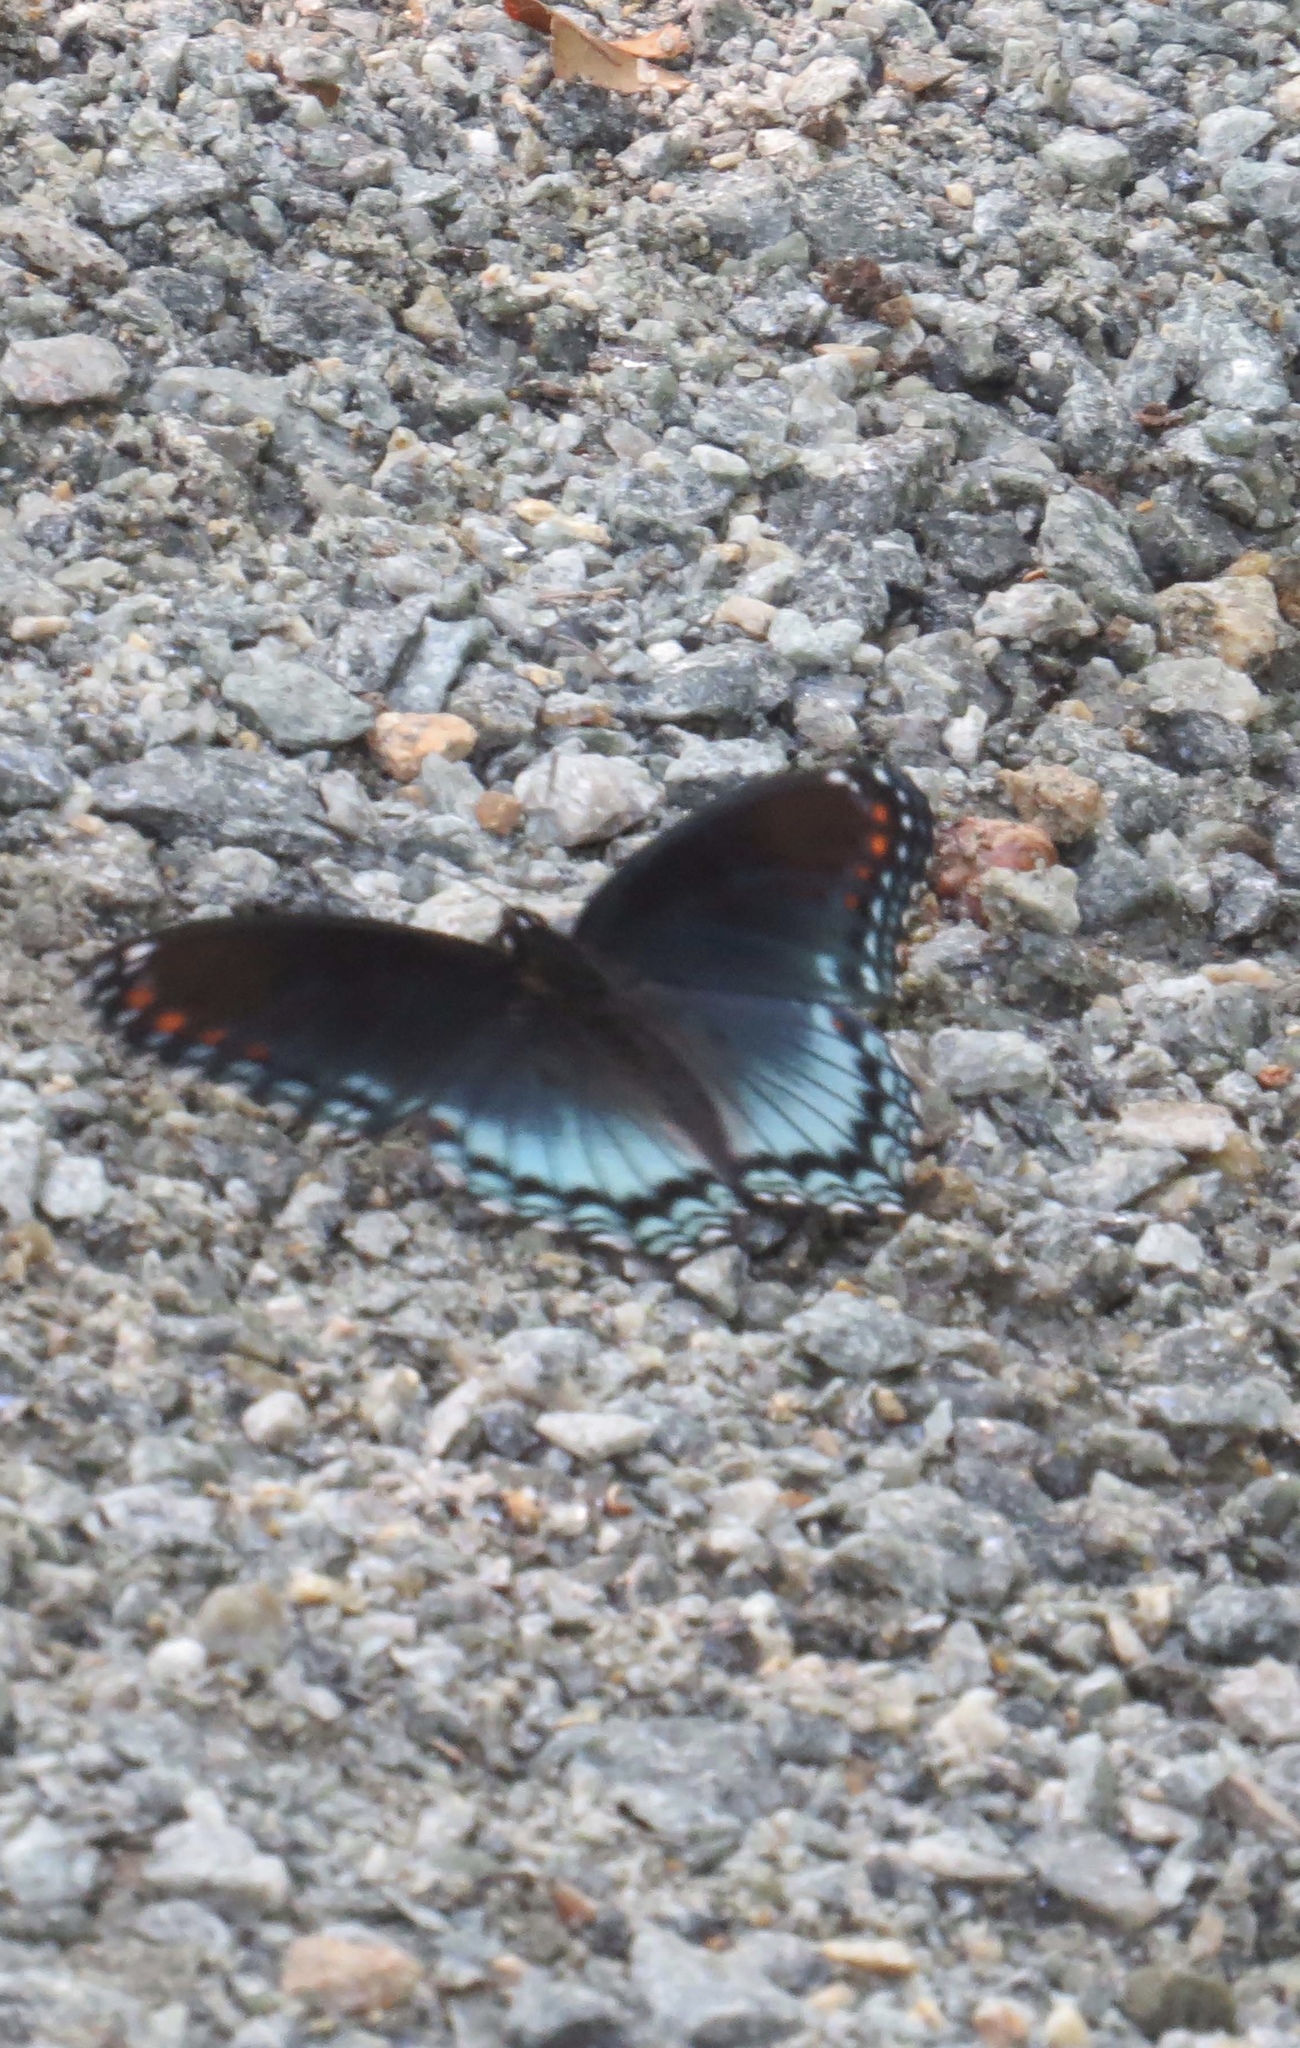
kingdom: Animalia
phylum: Arthropoda
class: Insecta
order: Lepidoptera
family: Nymphalidae
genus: Limenitis
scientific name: Limenitis astyanax
